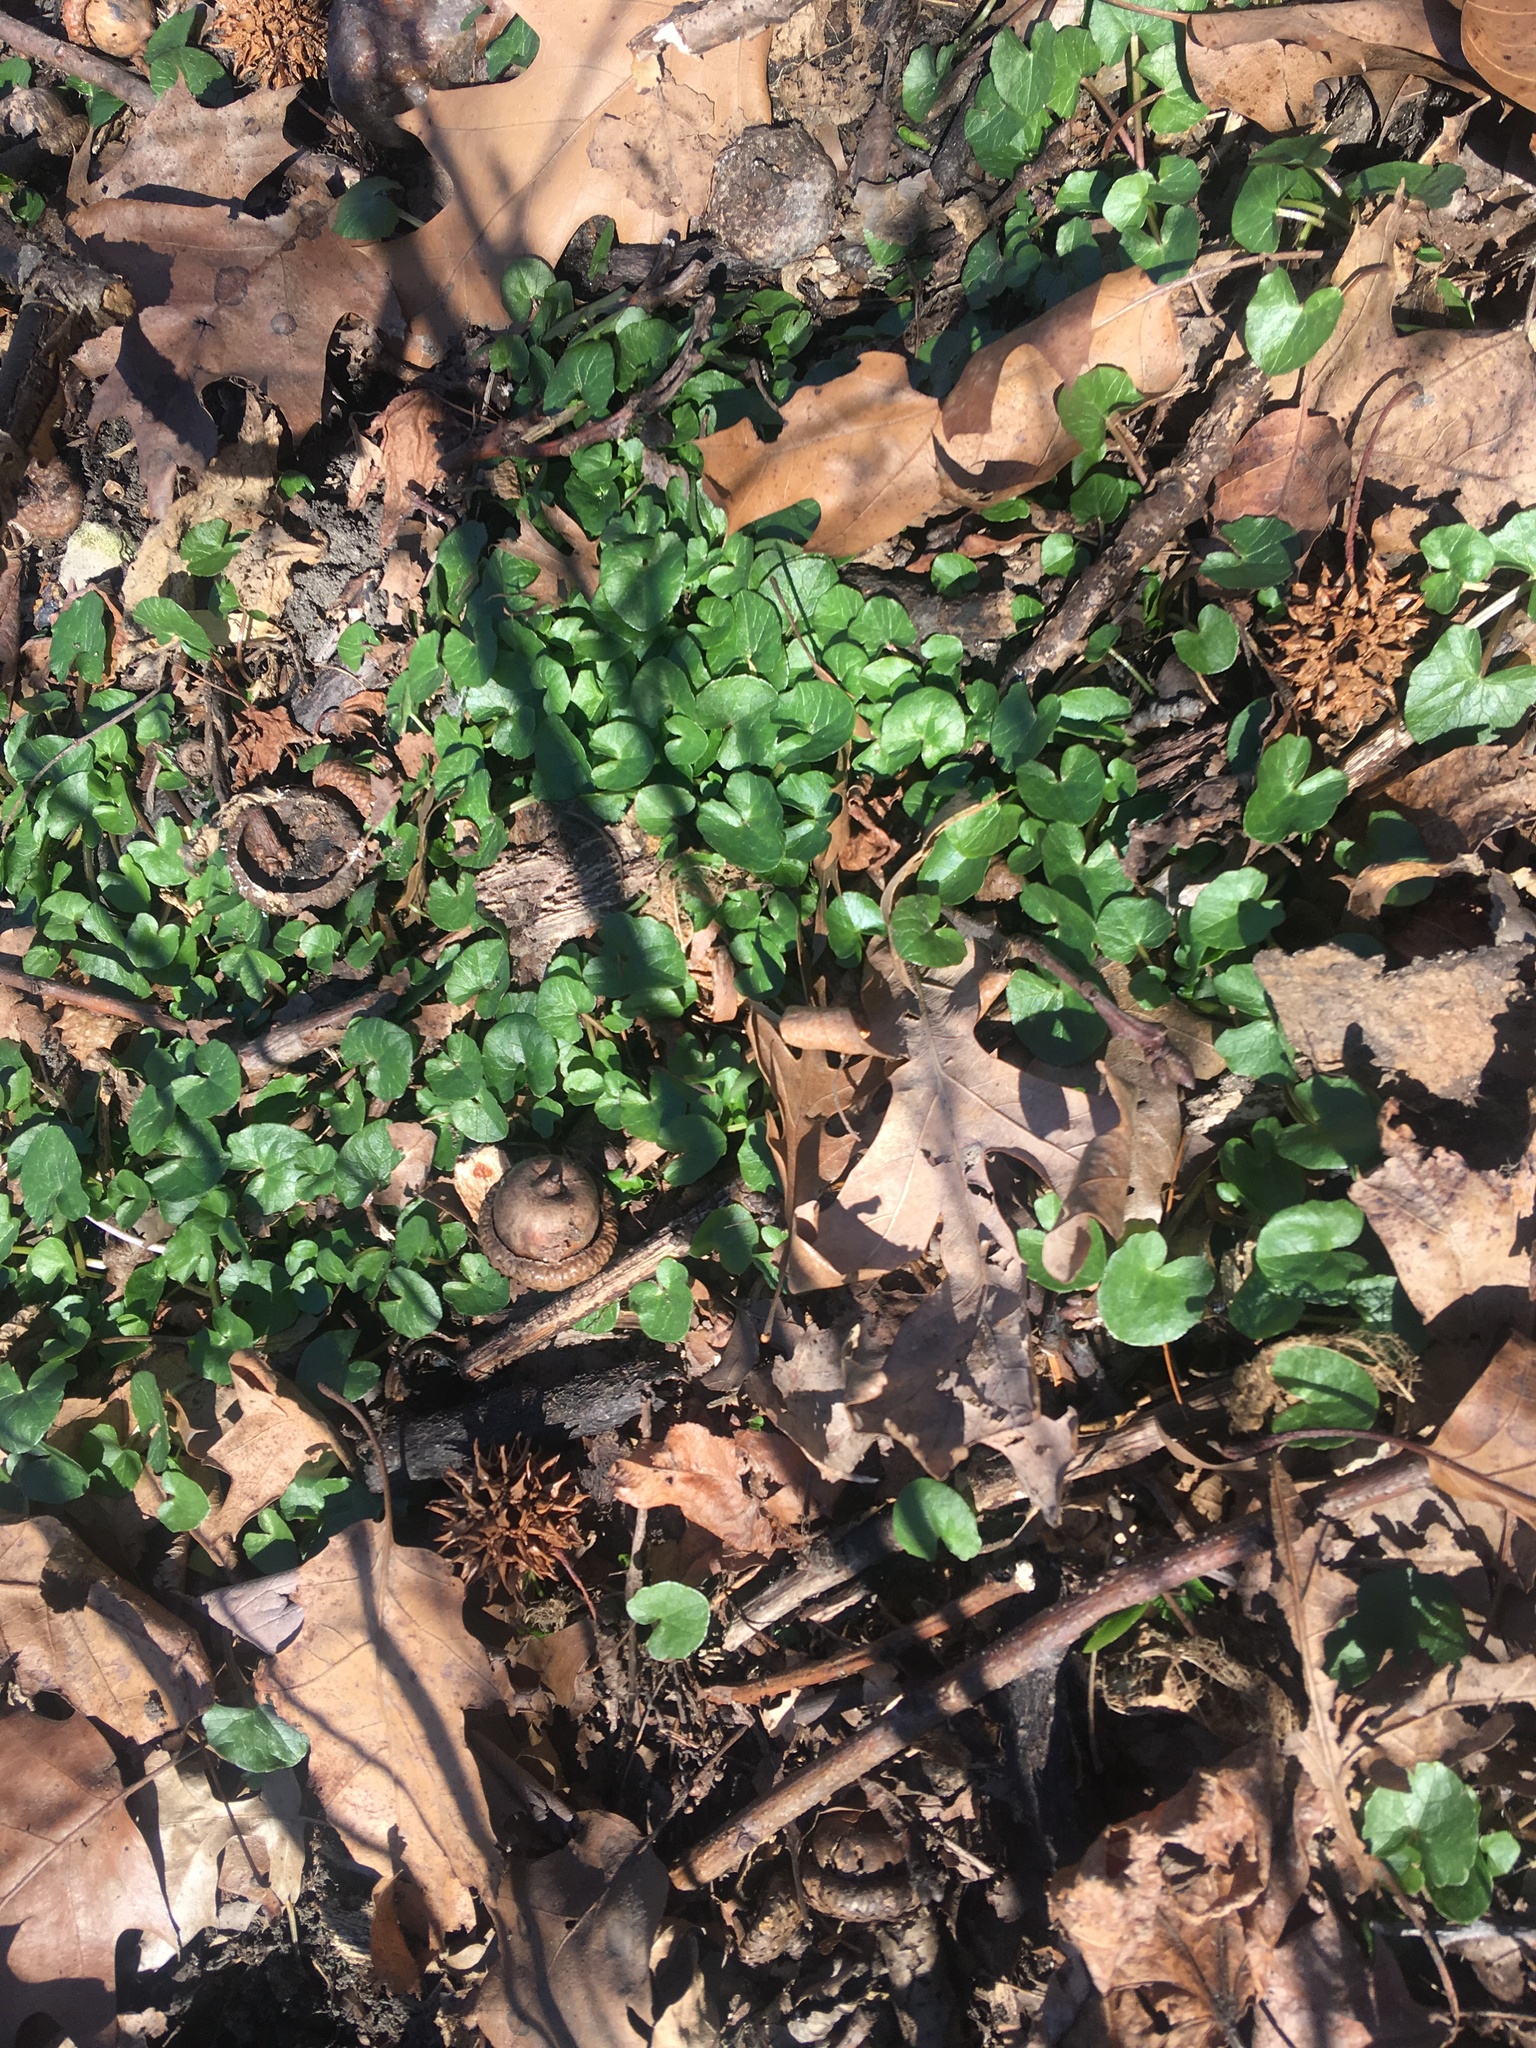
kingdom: Plantae
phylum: Tracheophyta
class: Magnoliopsida
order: Ranunculales
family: Ranunculaceae
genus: Ficaria
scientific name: Ficaria verna
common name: Lesser celandine
